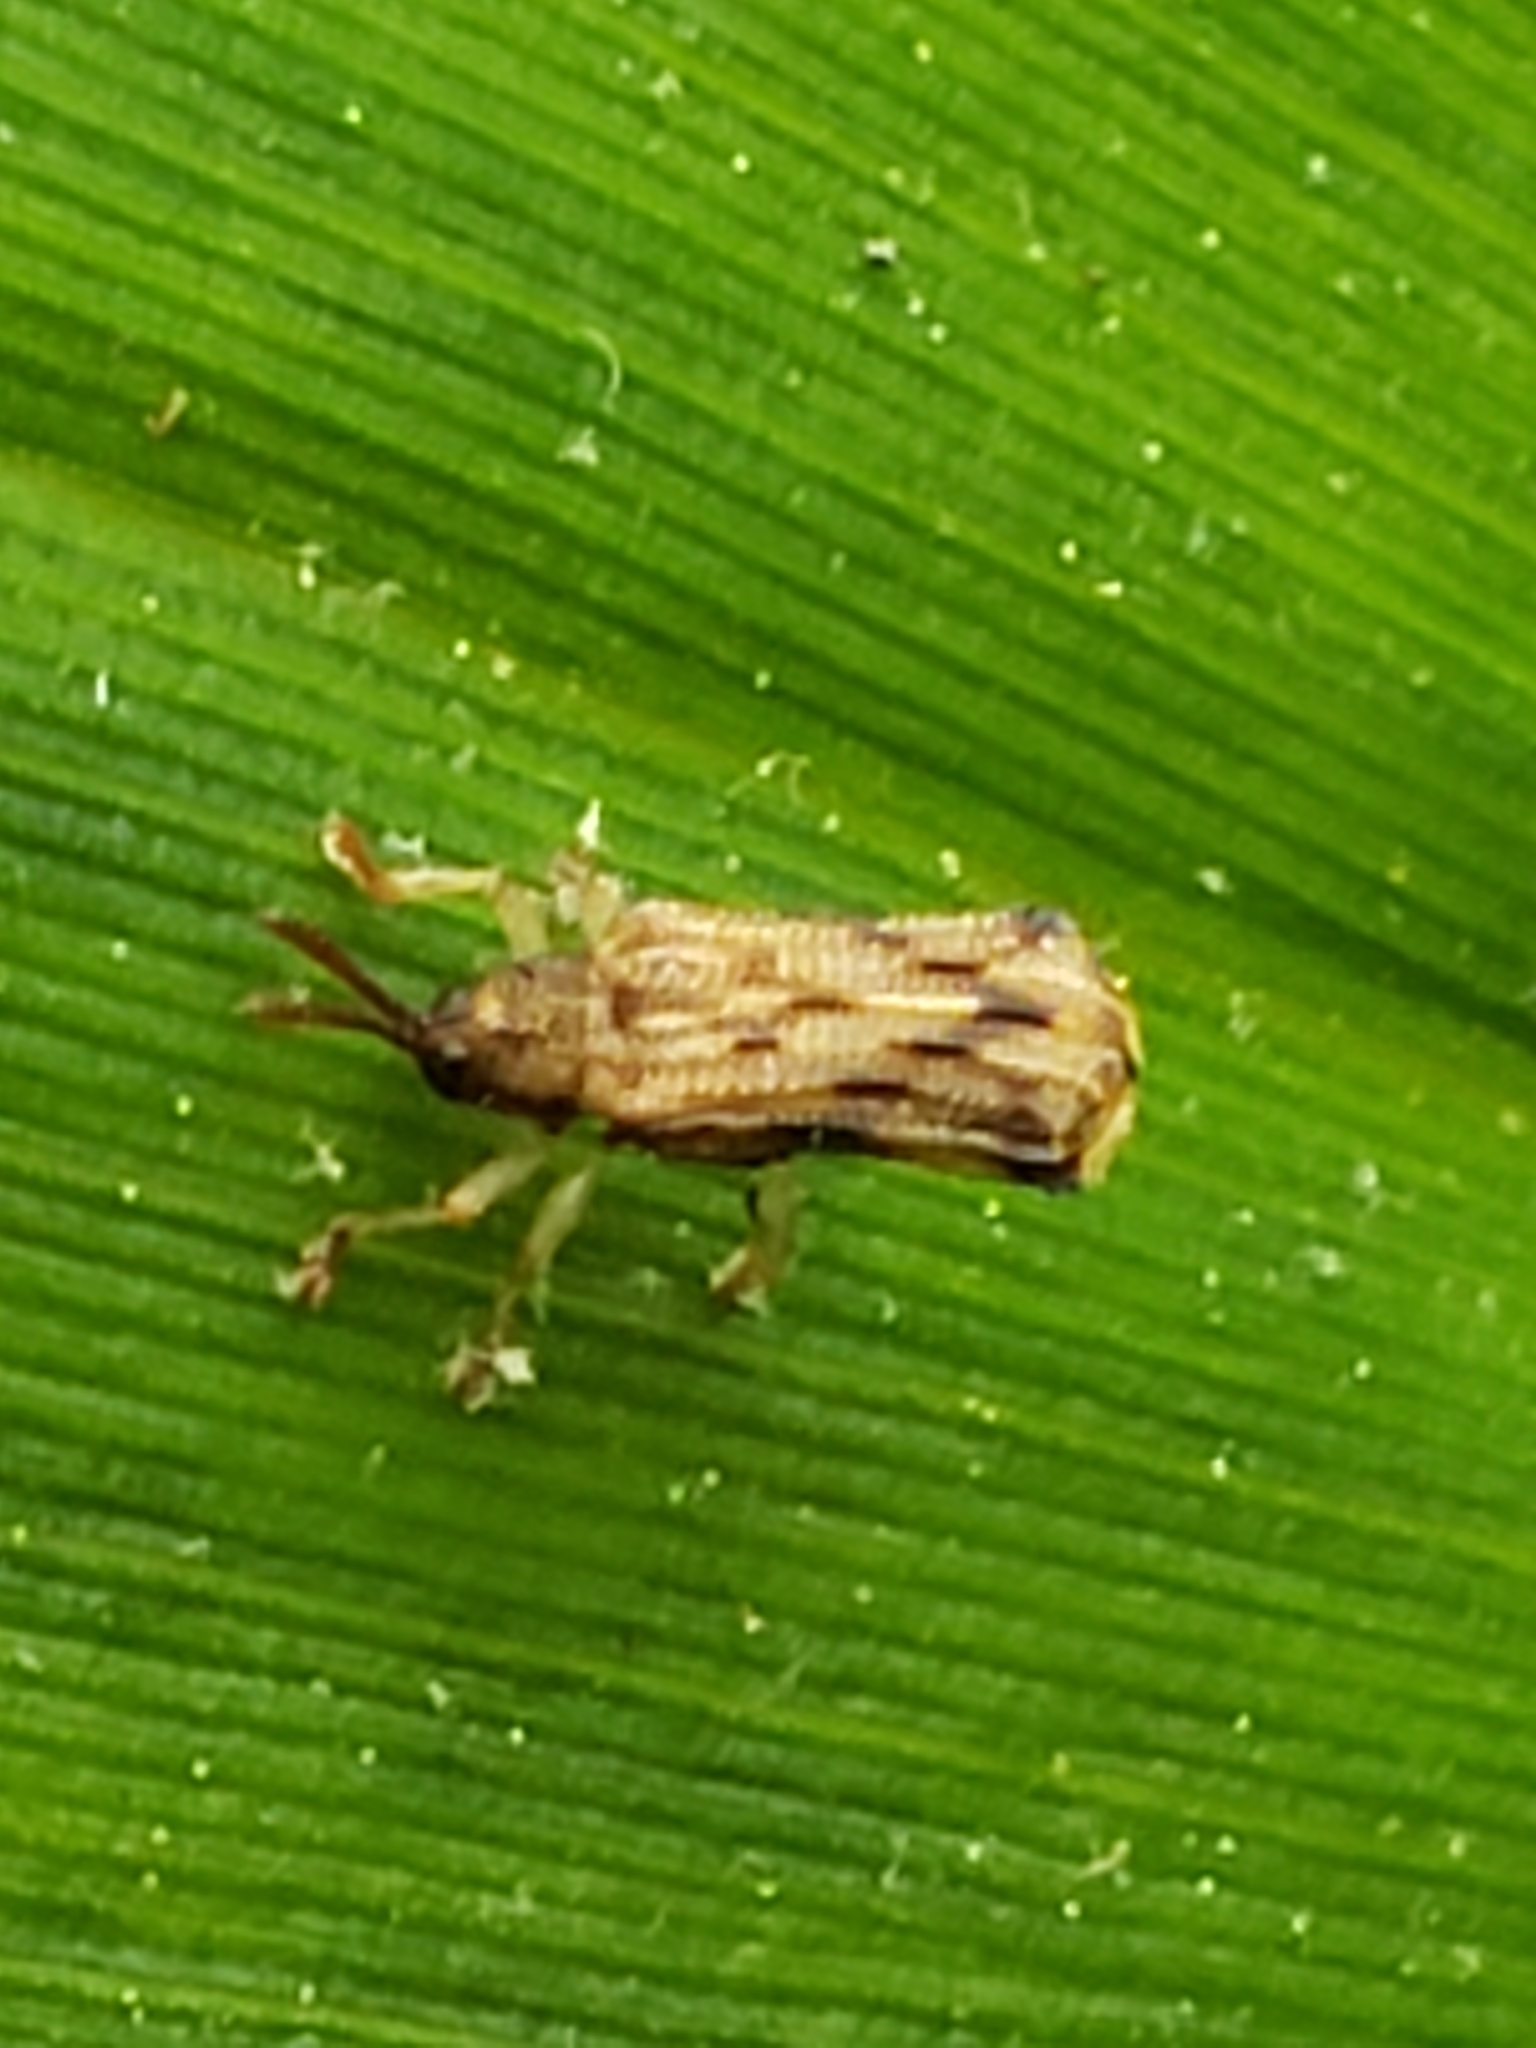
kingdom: Animalia
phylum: Arthropoda
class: Insecta
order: Coleoptera
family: Chrysomelidae
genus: Sumitrosis
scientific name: Sumitrosis rosea
